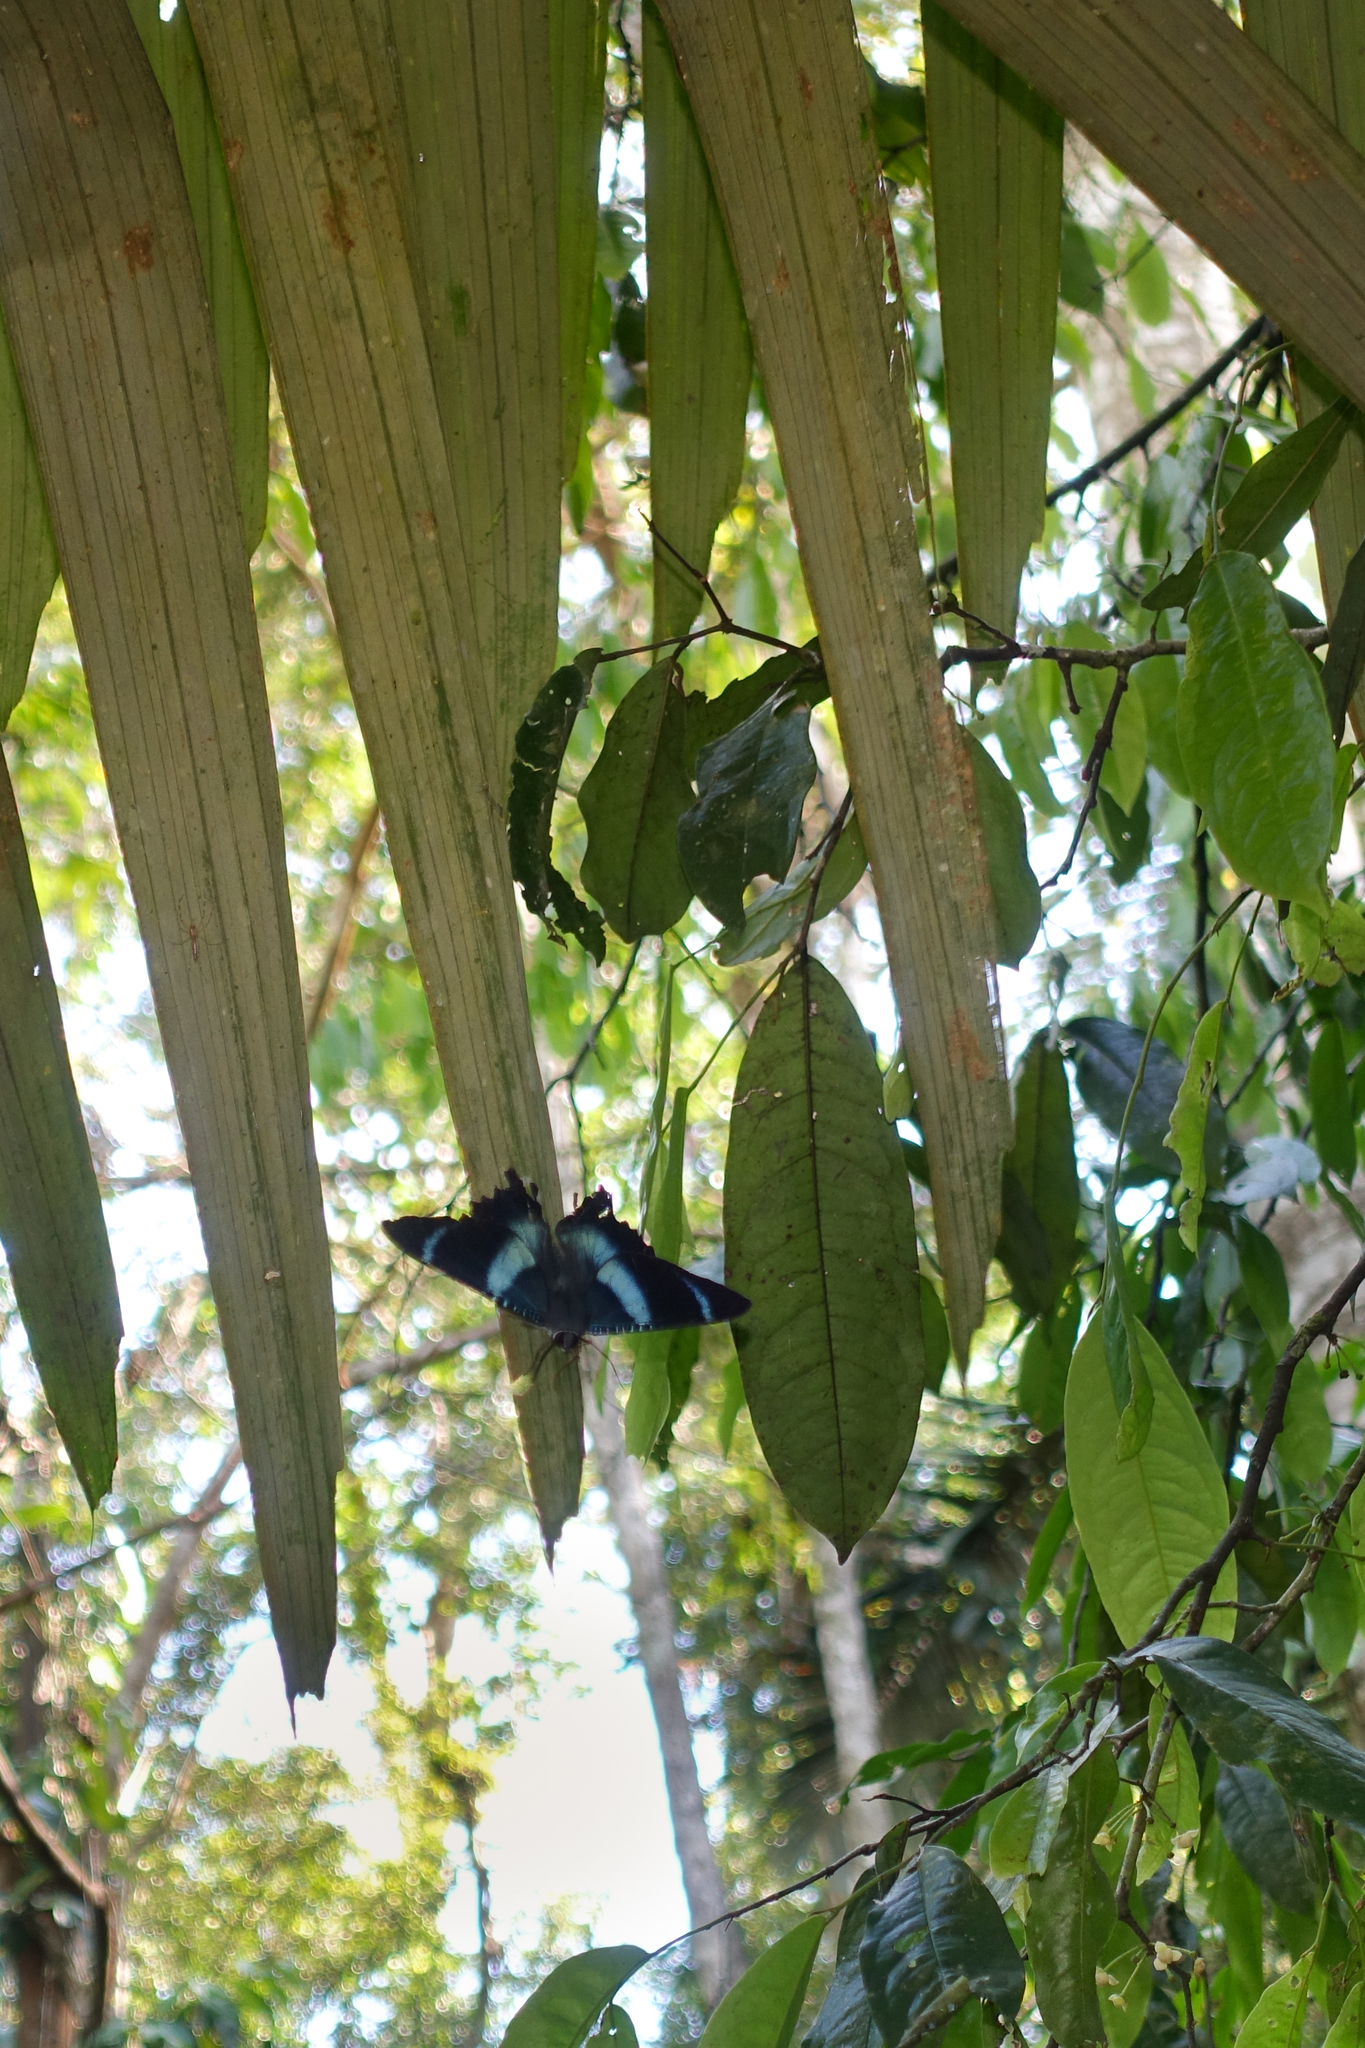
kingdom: Animalia
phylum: Arthropoda
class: Insecta
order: Lepidoptera
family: Uraniidae
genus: Alcides
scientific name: Alcides cydnus
